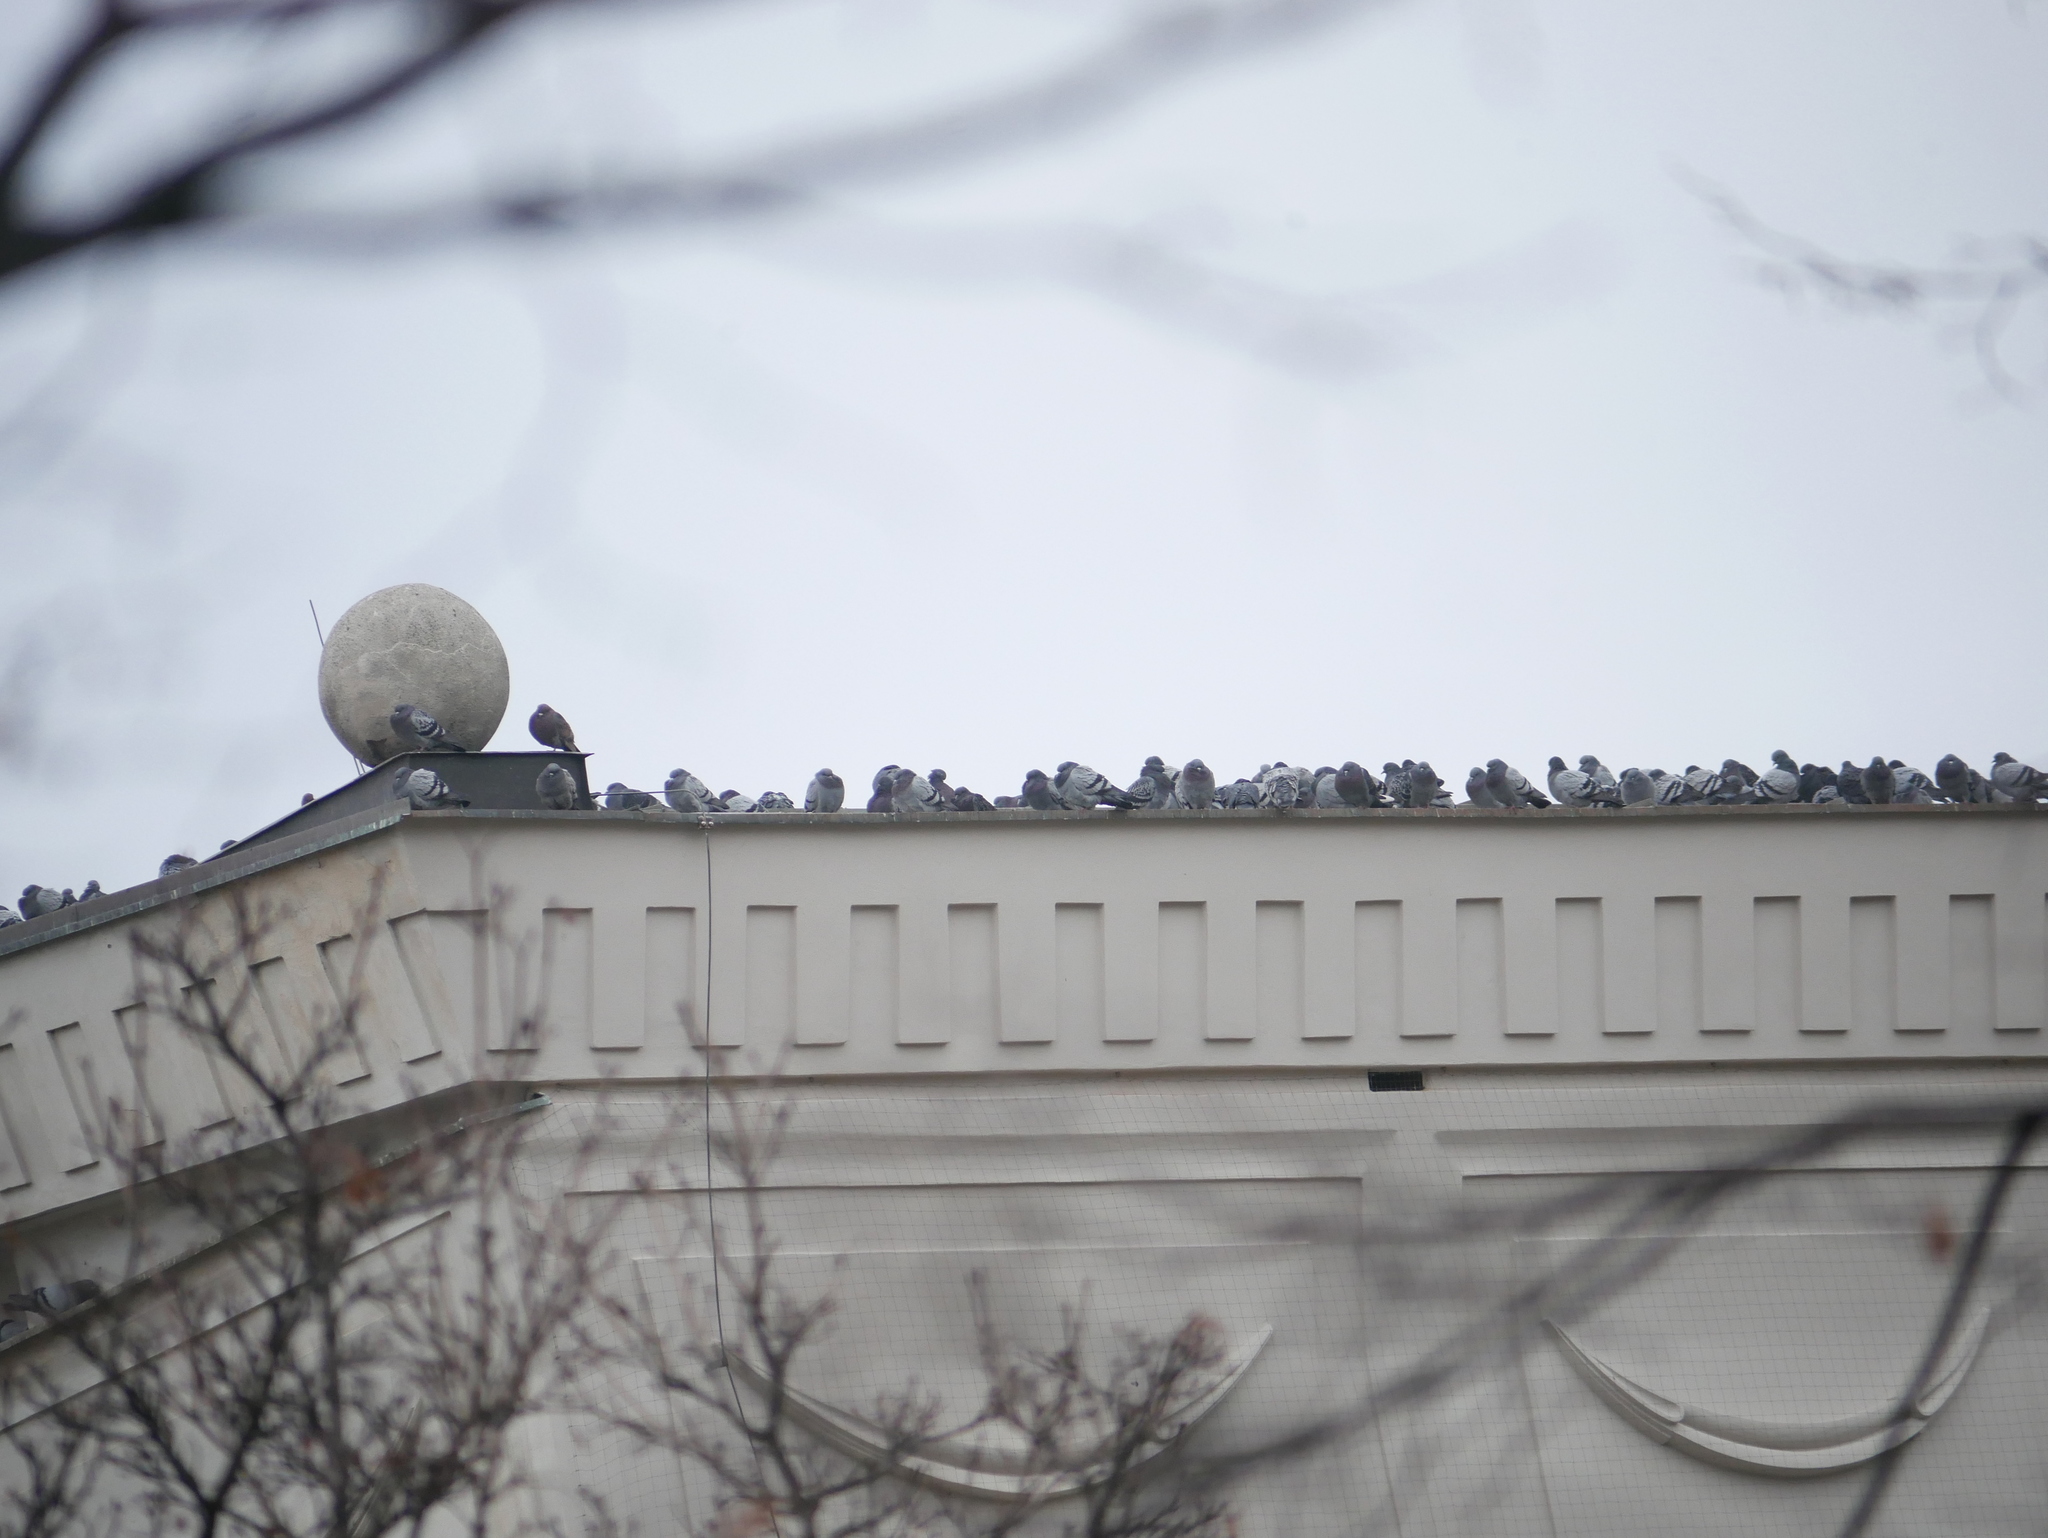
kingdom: Animalia
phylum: Chordata
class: Aves
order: Columbiformes
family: Columbidae
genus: Columba
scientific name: Columba livia
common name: Rock pigeon
